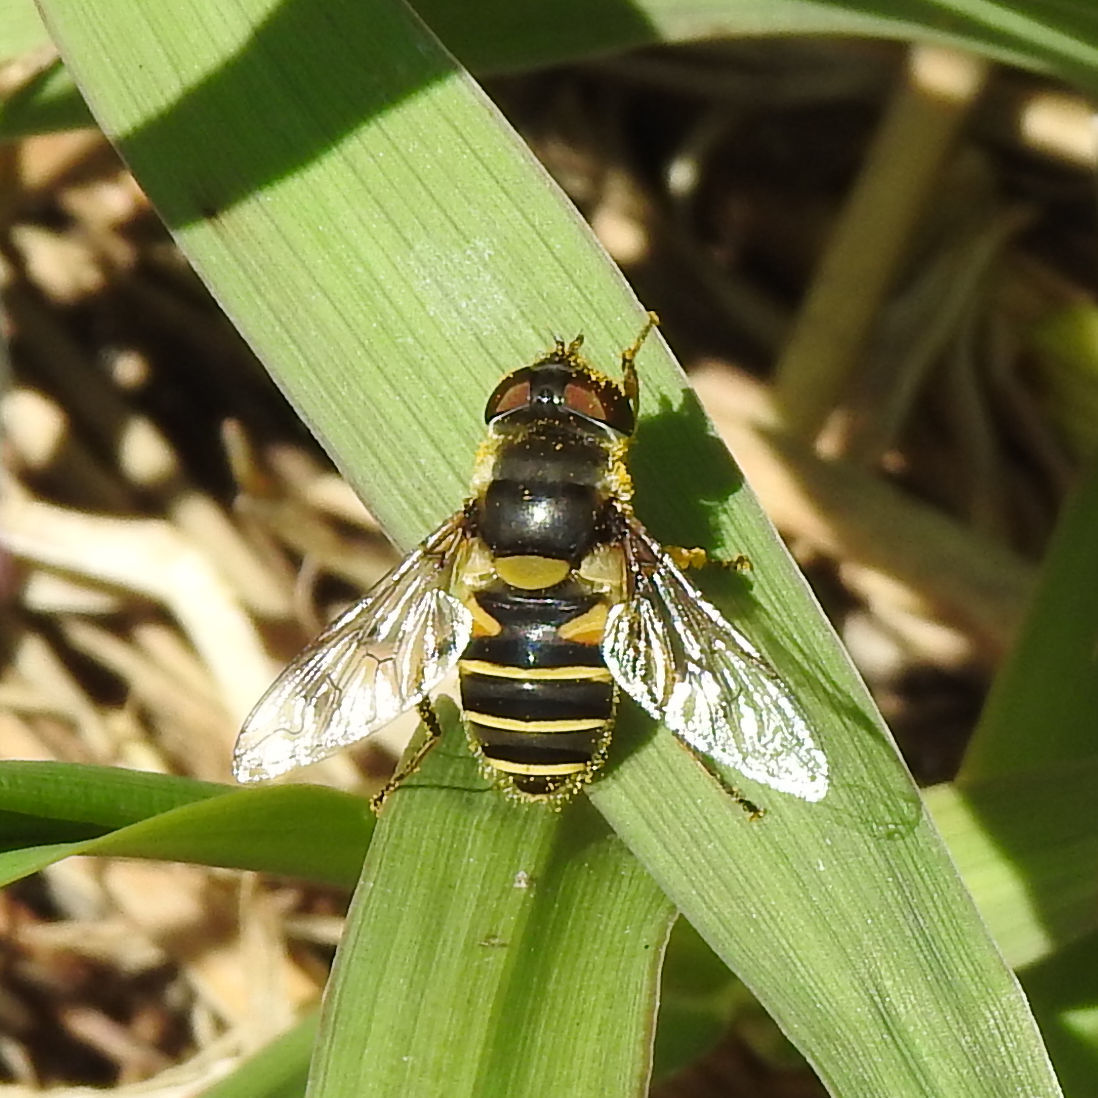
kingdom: Animalia
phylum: Arthropoda
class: Insecta
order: Diptera
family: Syrphidae
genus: Eristalis
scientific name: Eristalis transversa
